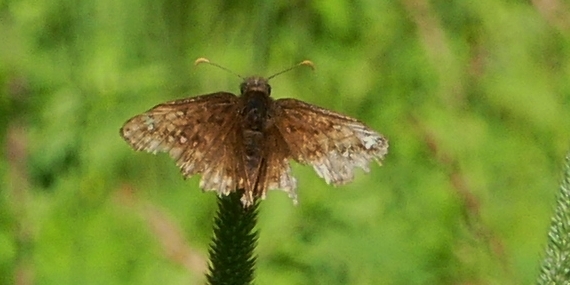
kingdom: Animalia
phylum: Arthropoda
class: Insecta
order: Lepidoptera
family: Hesperiidae
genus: Erynnis
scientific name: Erynnis juvenalis
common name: Juvenal's duskywing
